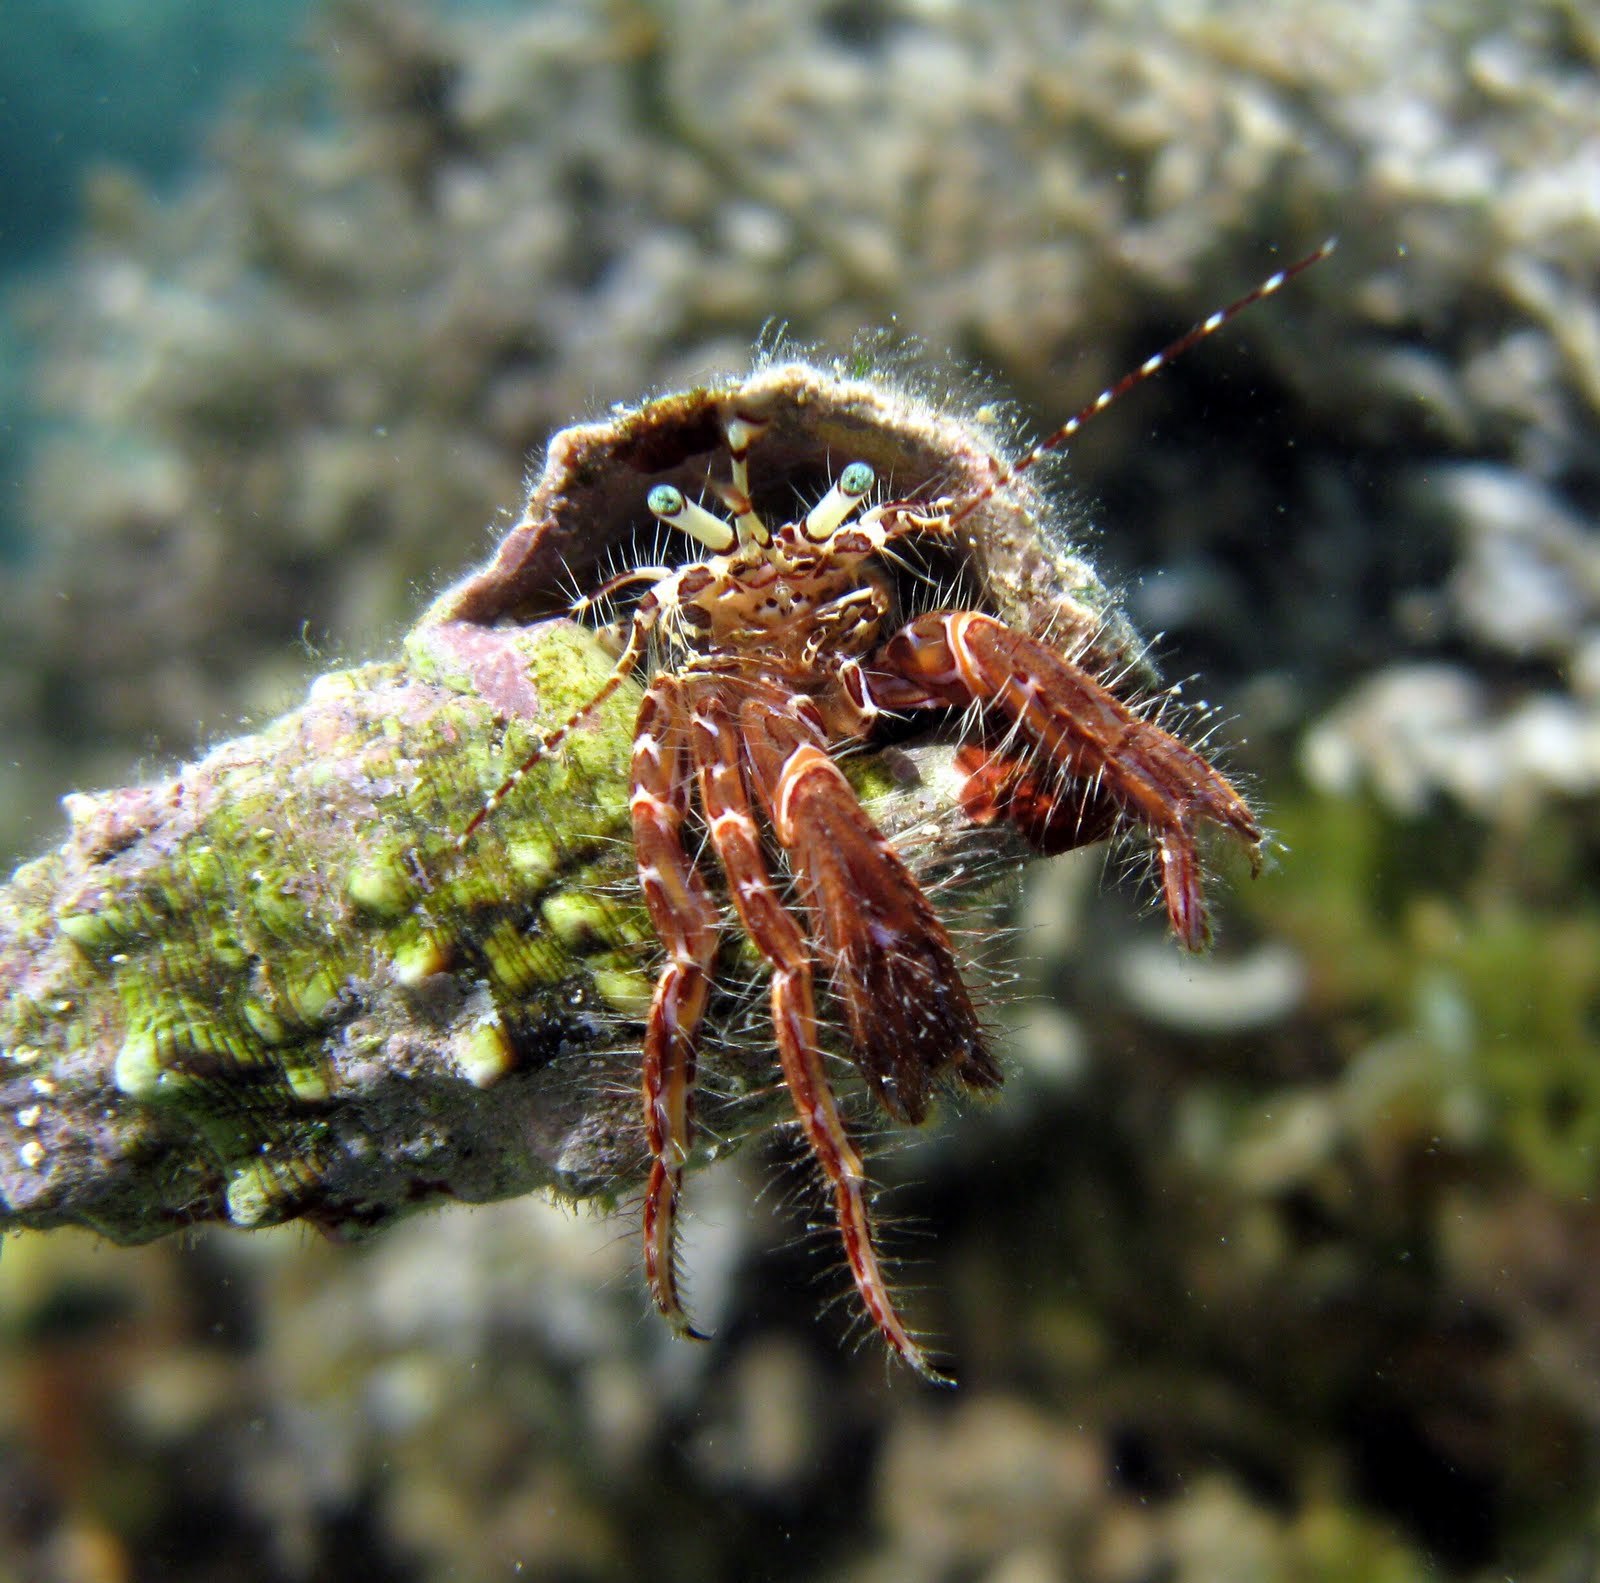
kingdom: Animalia
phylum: Arthropoda
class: Malacostraca
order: Decapoda
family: Paguridae
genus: Pagurus
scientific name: Pagurus anachoretus
